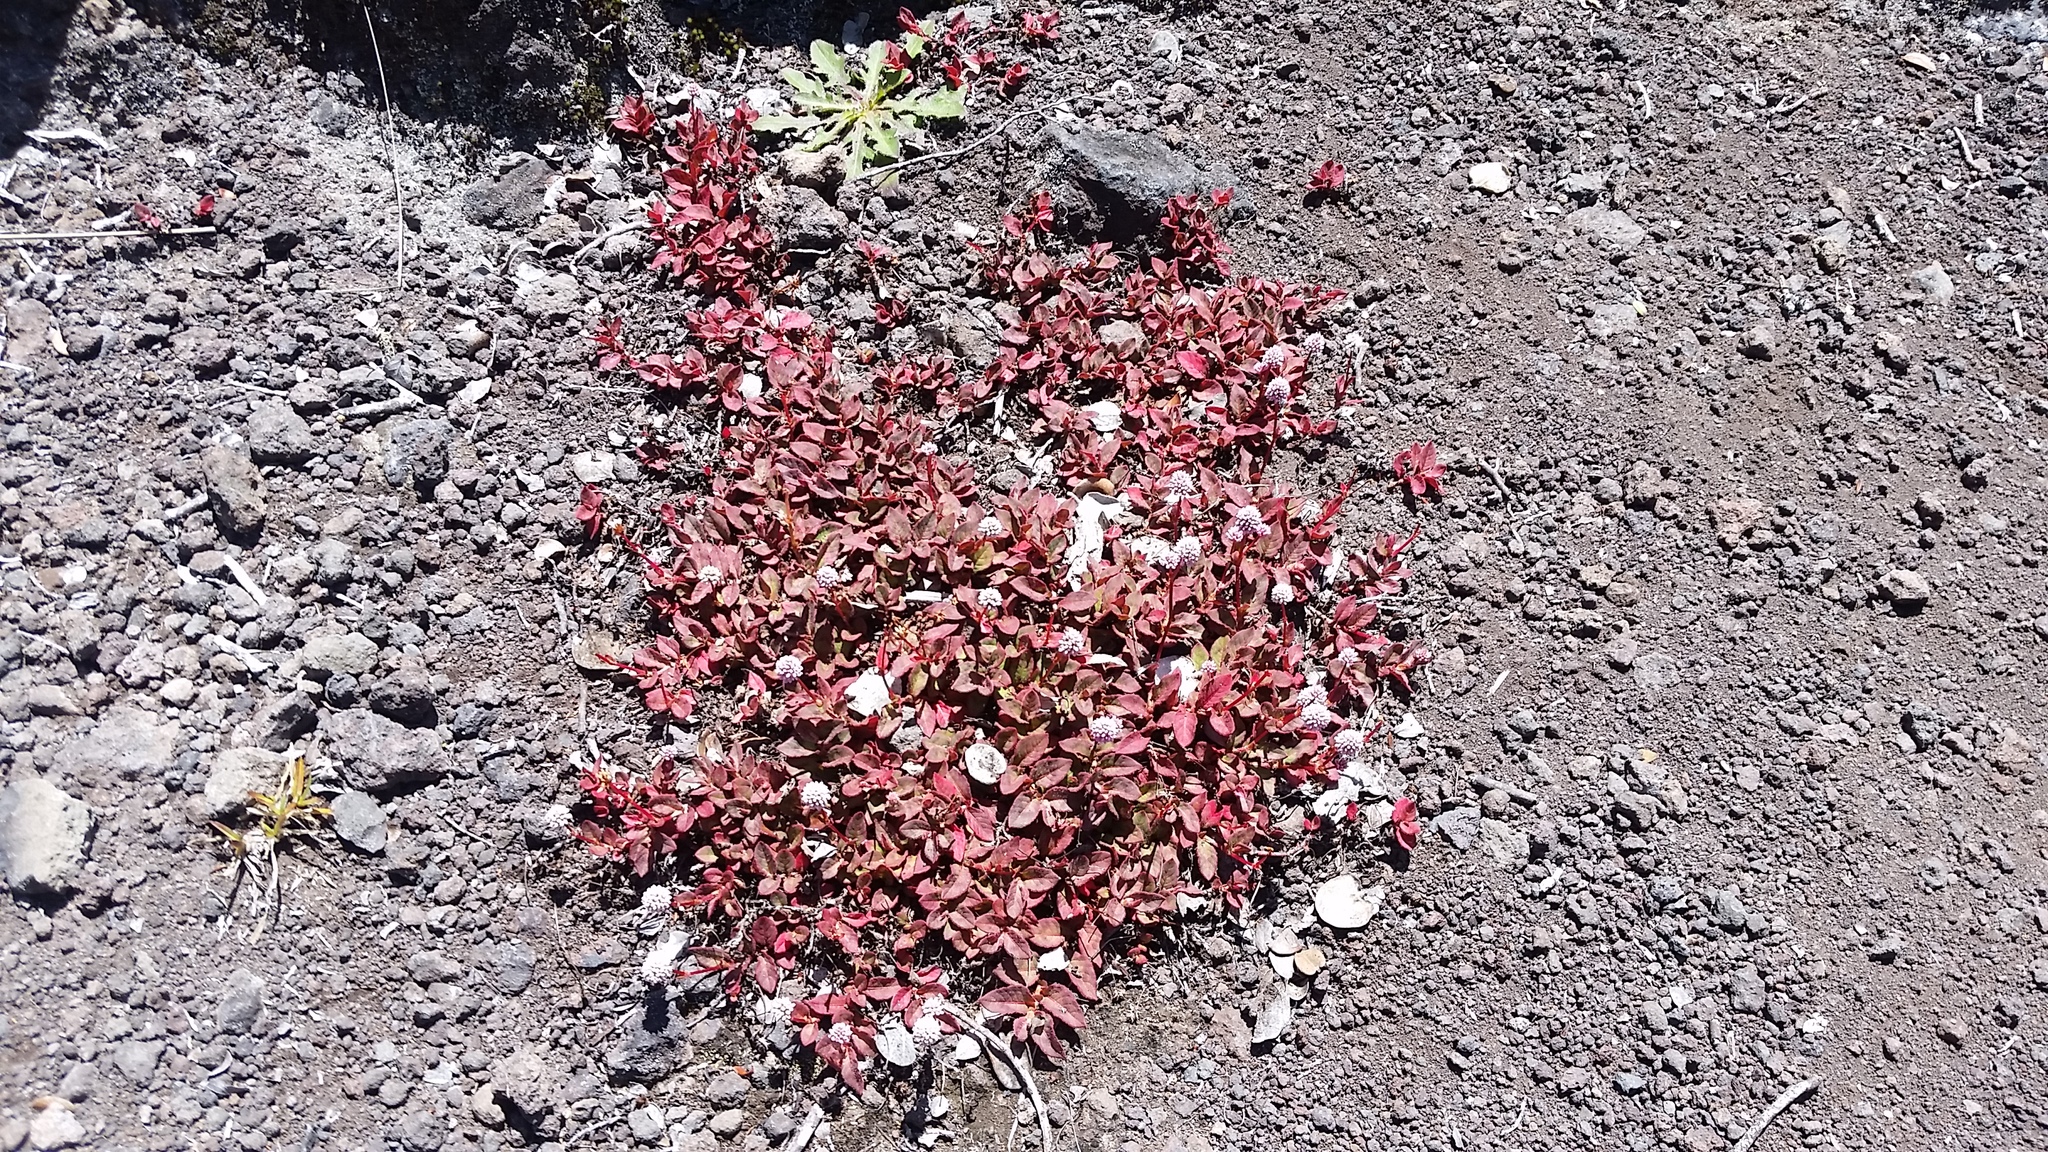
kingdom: Plantae
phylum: Tracheophyta
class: Magnoliopsida
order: Caryophyllales
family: Polygonaceae
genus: Persicaria
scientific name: Persicaria capitata
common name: Pinkhead smartweed
